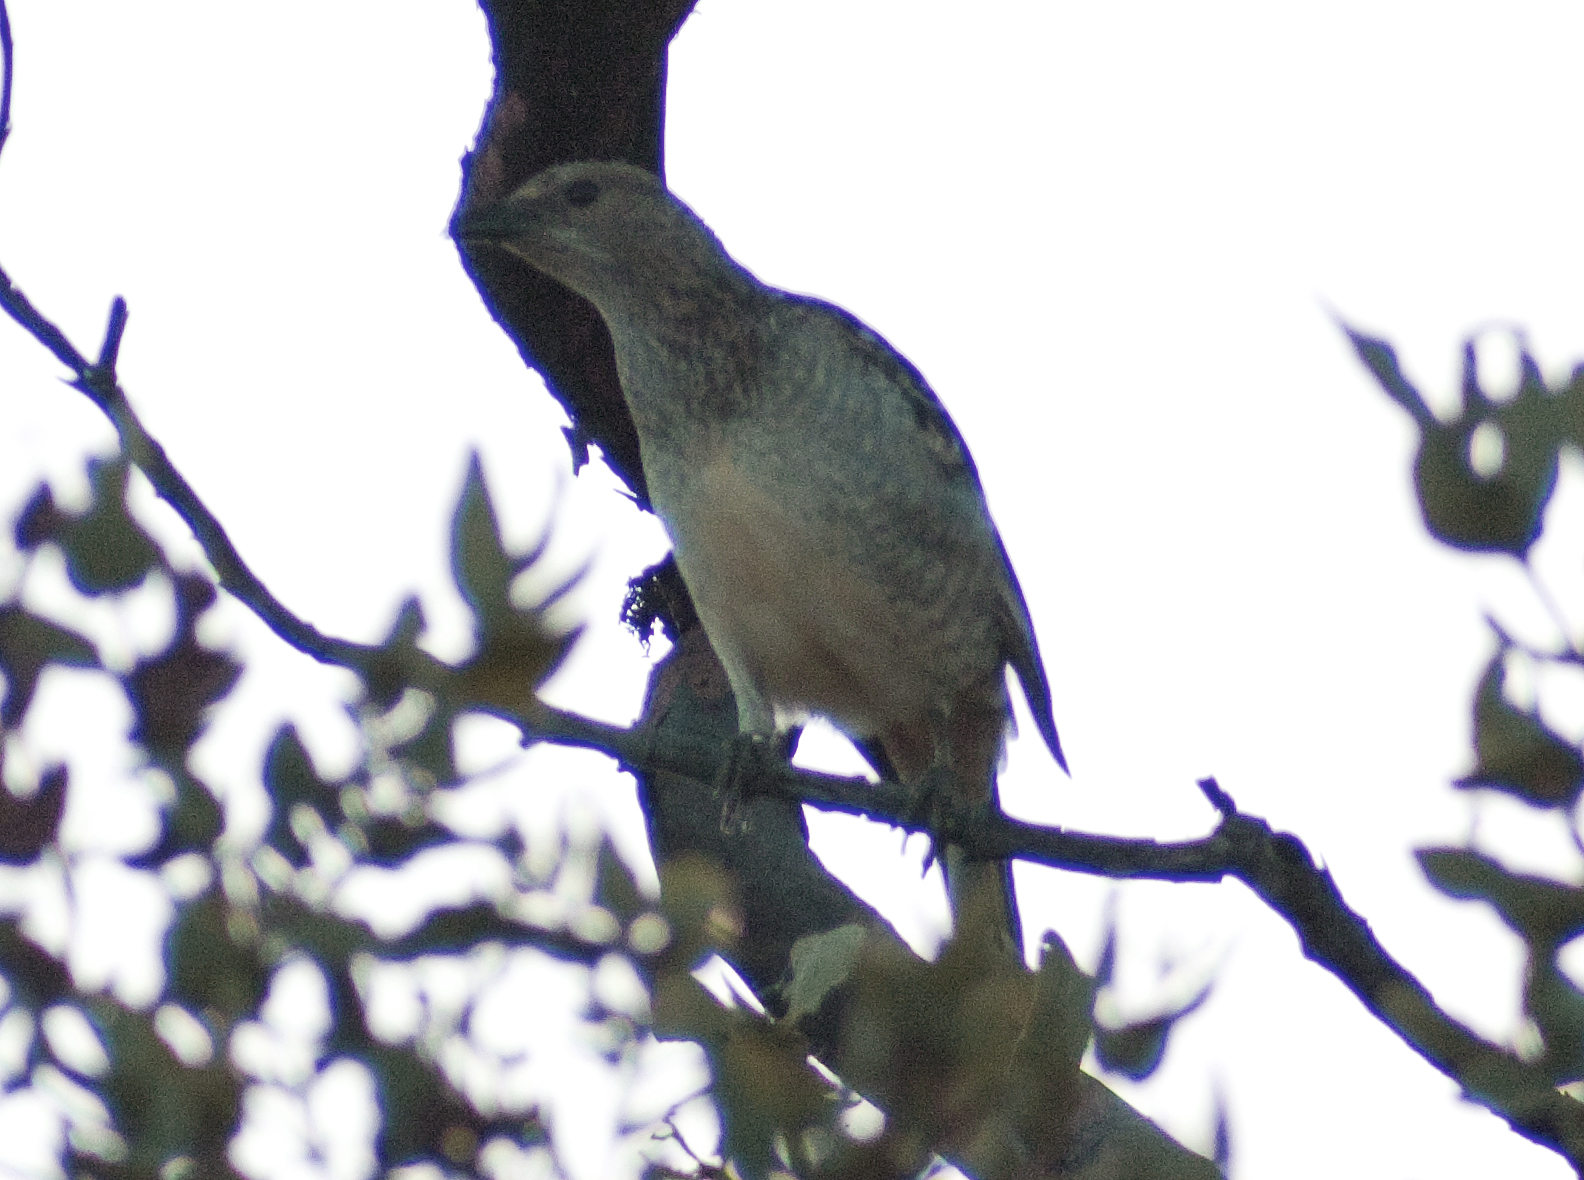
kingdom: Animalia
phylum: Chordata
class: Aves
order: Passeriformes
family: Ptilonorhynchidae
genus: Chlamydera
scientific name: Chlamydera maculata
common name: Spotted bowerbird
